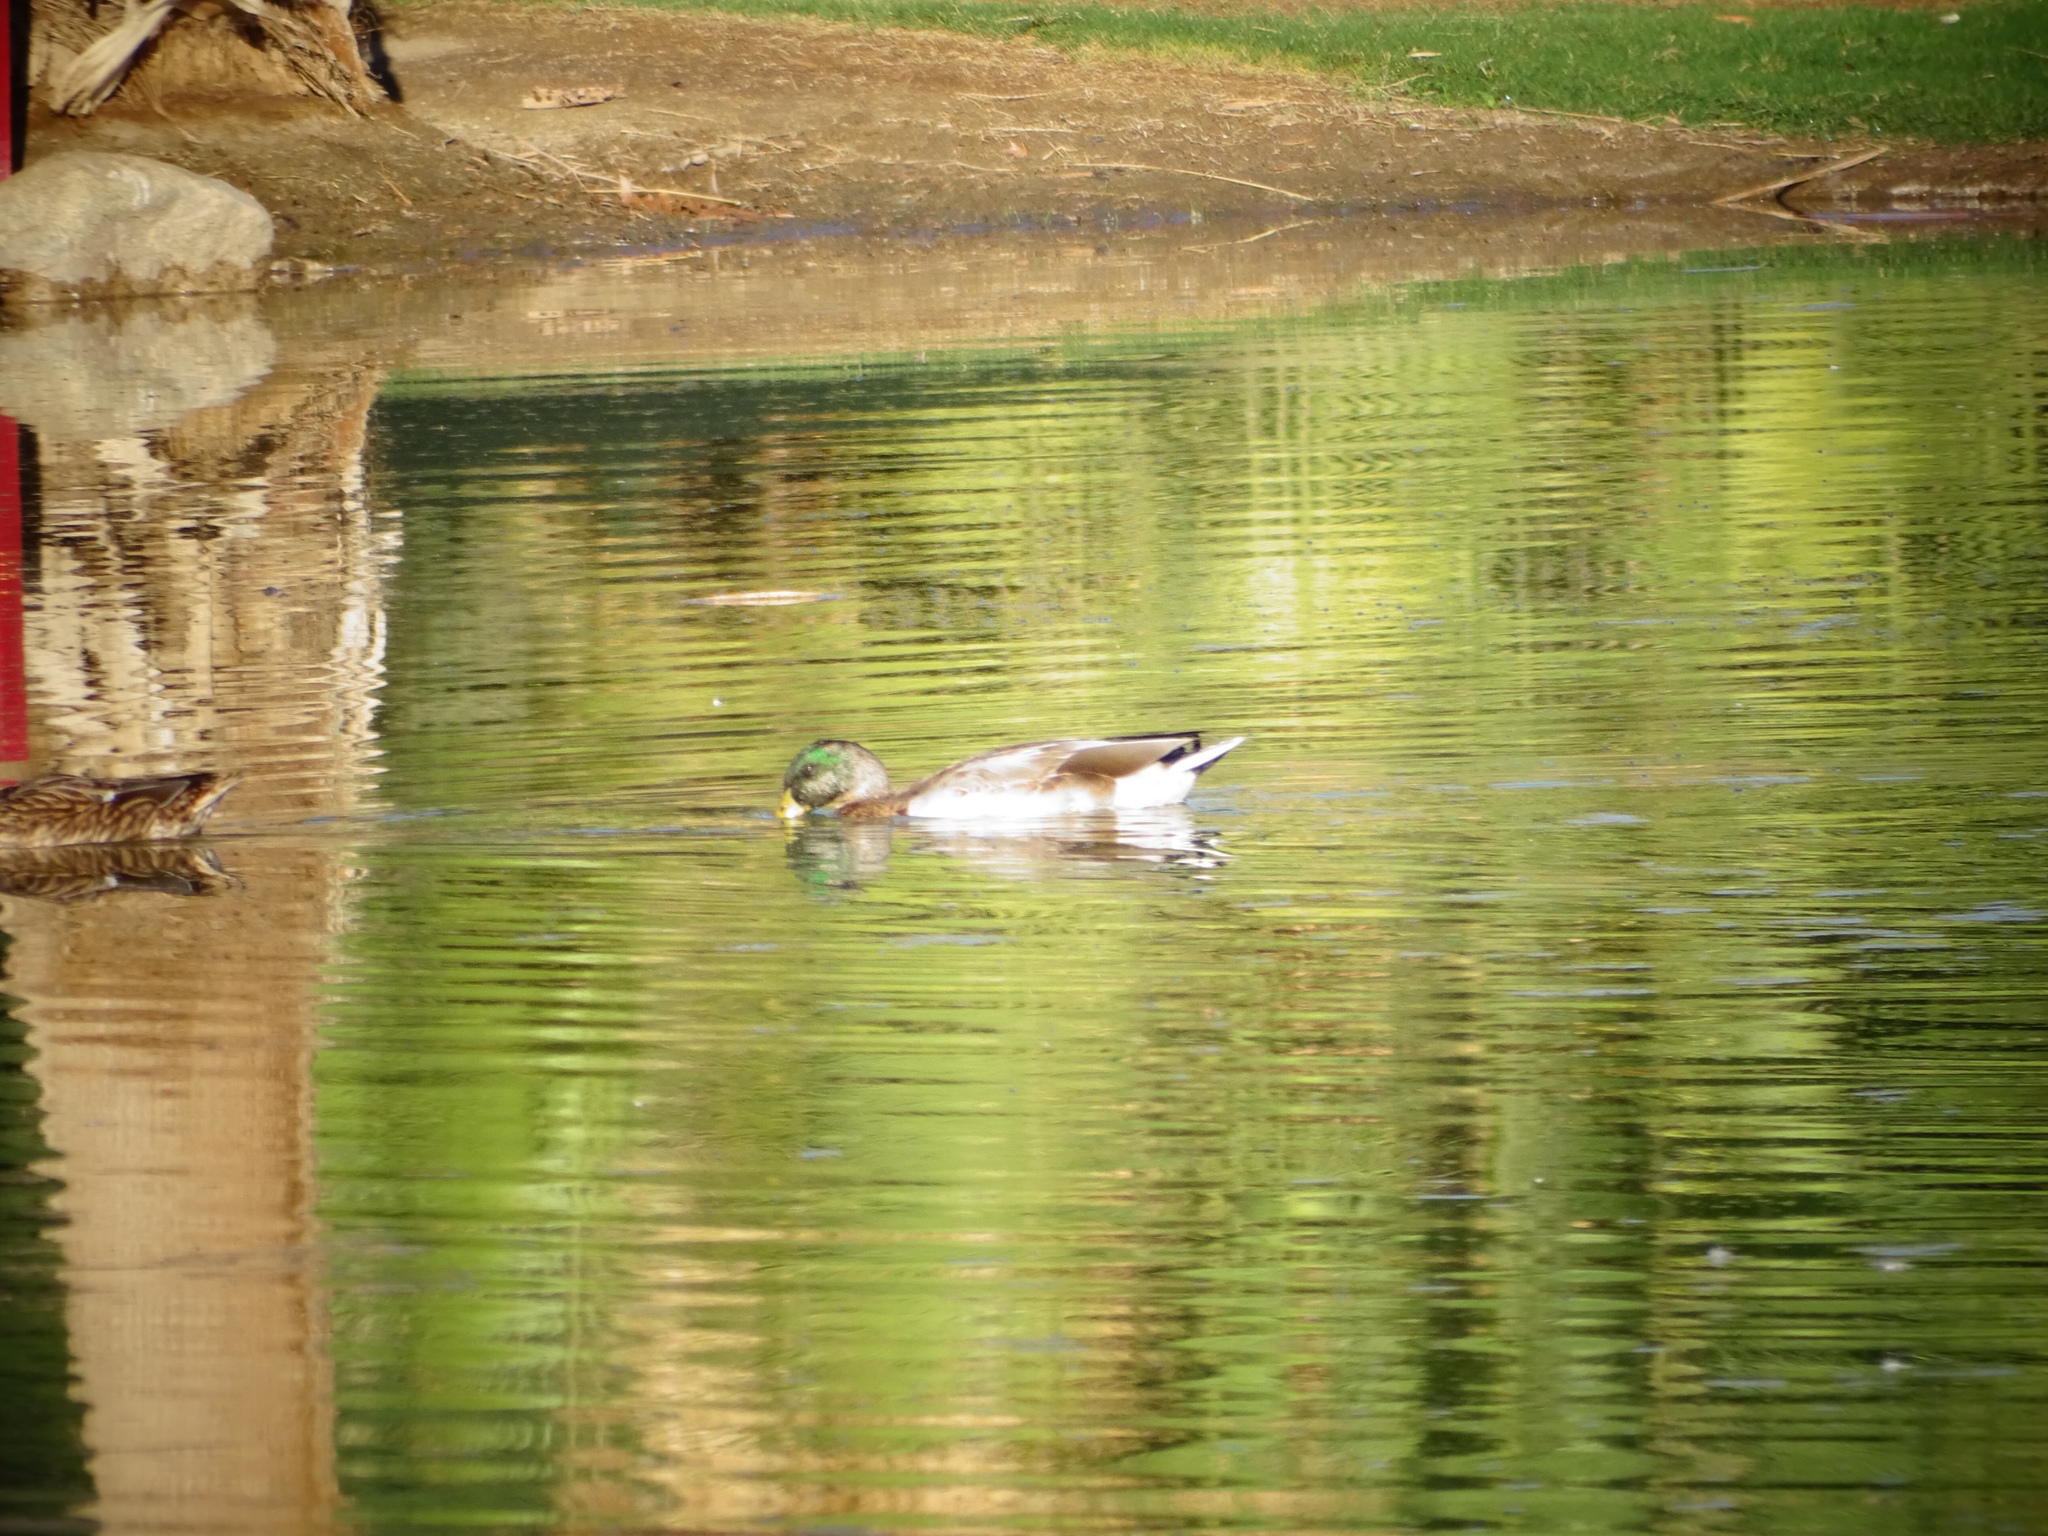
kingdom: Animalia
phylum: Chordata
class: Aves
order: Anseriformes
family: Anatidae
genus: Anas
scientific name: Anas platyrhynchos
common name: Mallard
